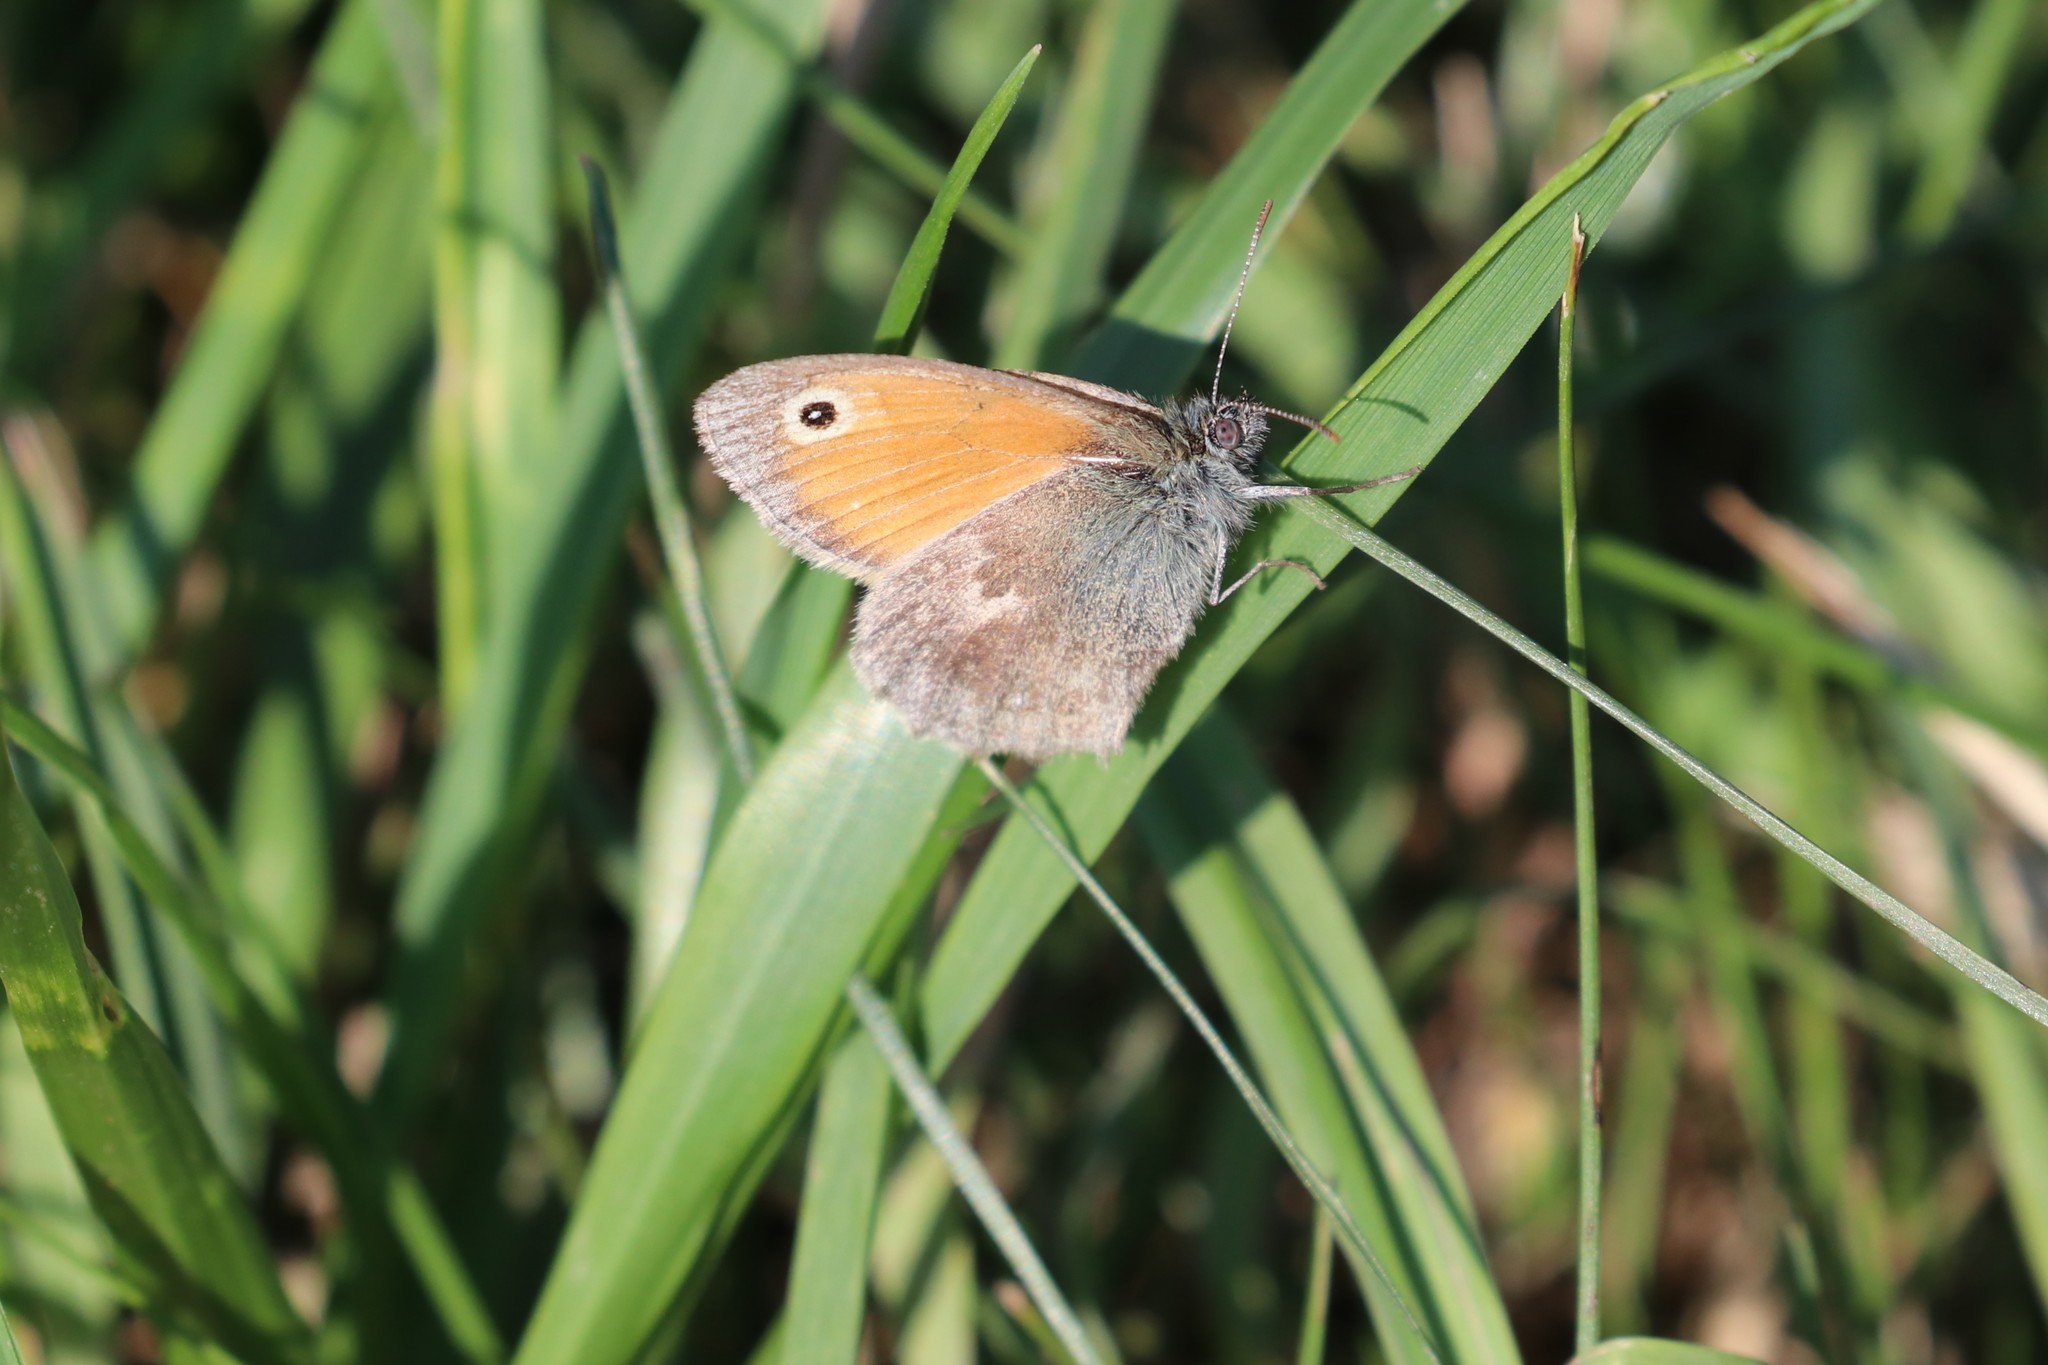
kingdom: Animalia
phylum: Arthropoda
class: Insecta
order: Lepidoptera
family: Nymphalidae
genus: Coenonympha
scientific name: Coenonympha pamphilus
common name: Small heath
